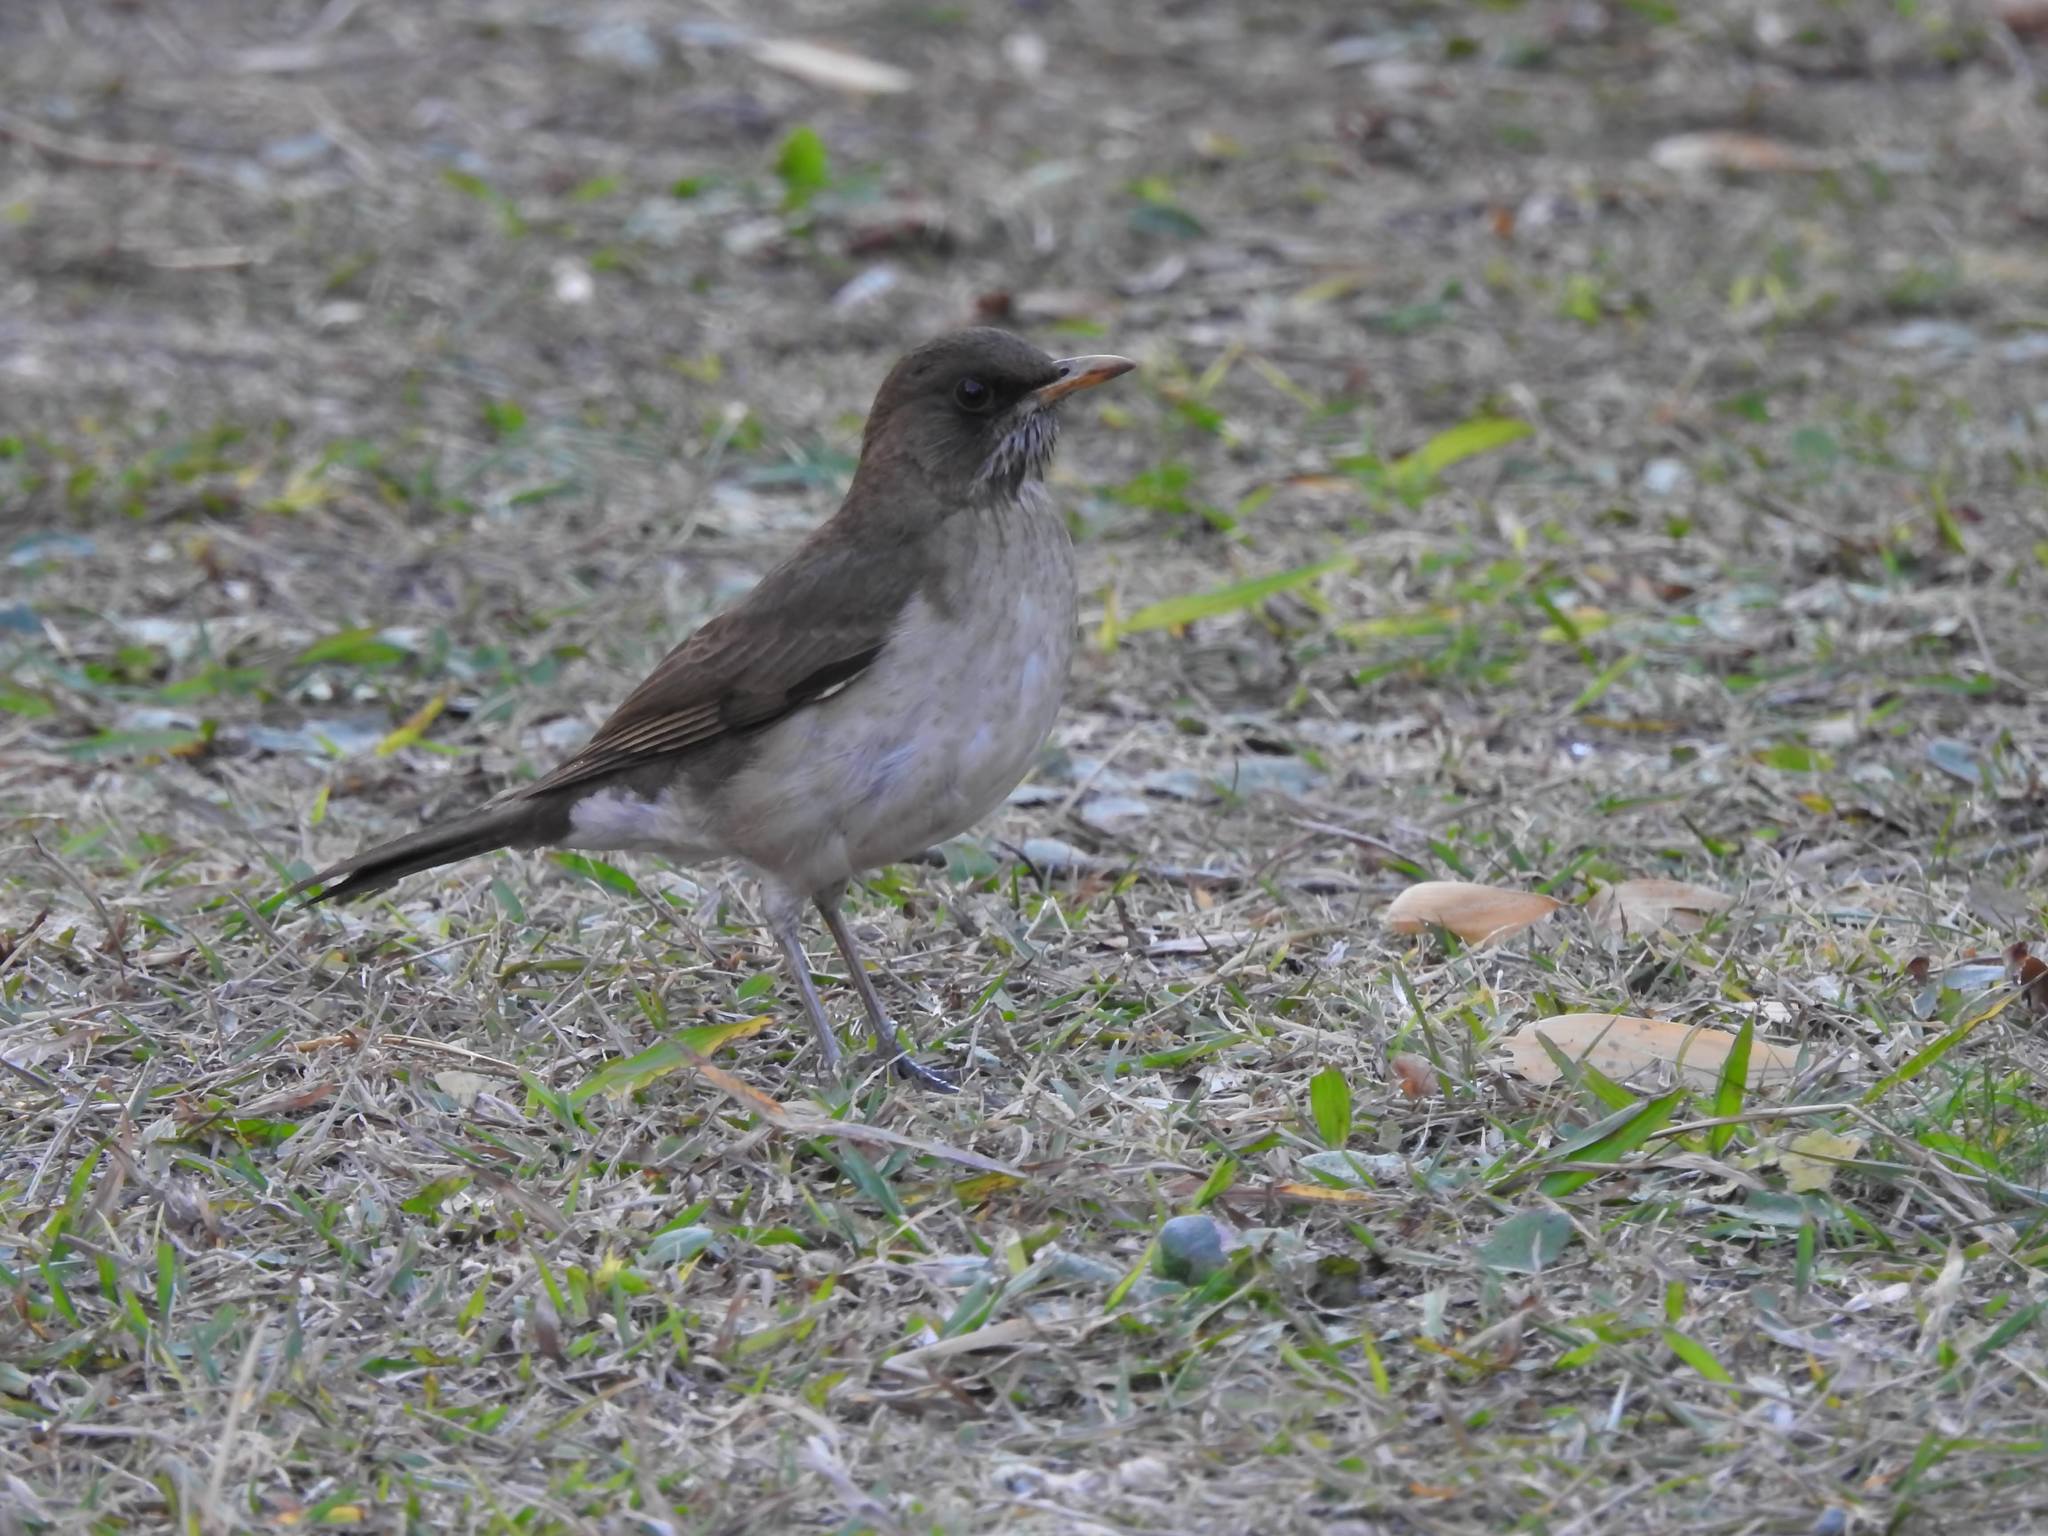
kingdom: Animalia
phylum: Chordata
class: Aves
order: Passeriformes
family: Turdidae
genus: Turdus
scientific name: Turdus amaurochalinus
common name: Creamy-bellied thrush
